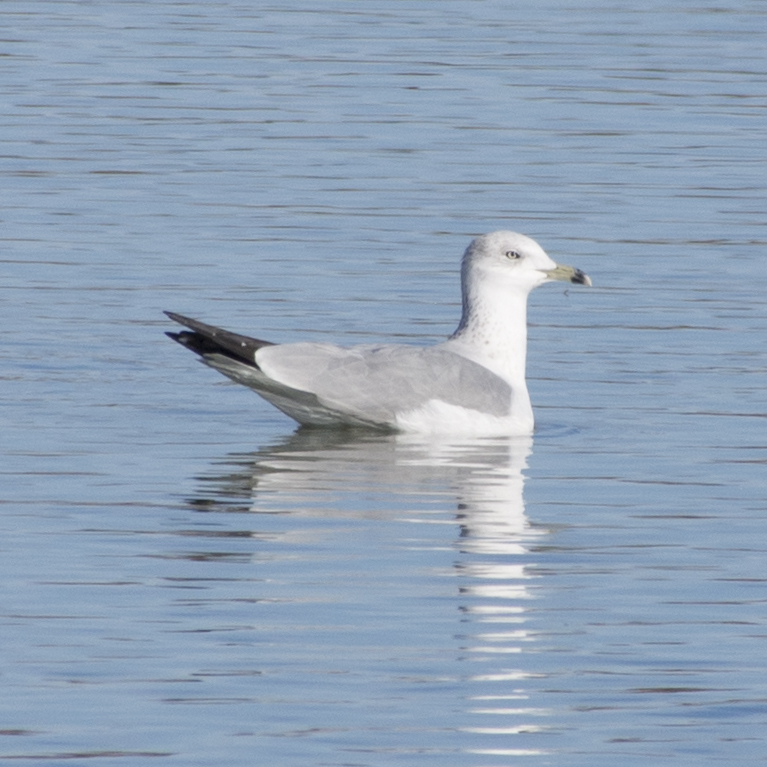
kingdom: Animalia
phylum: Chordata
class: Aves
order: Charadriiformes
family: Laridae
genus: Larus
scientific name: Larus delawarensis
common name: Ring-billed gull
